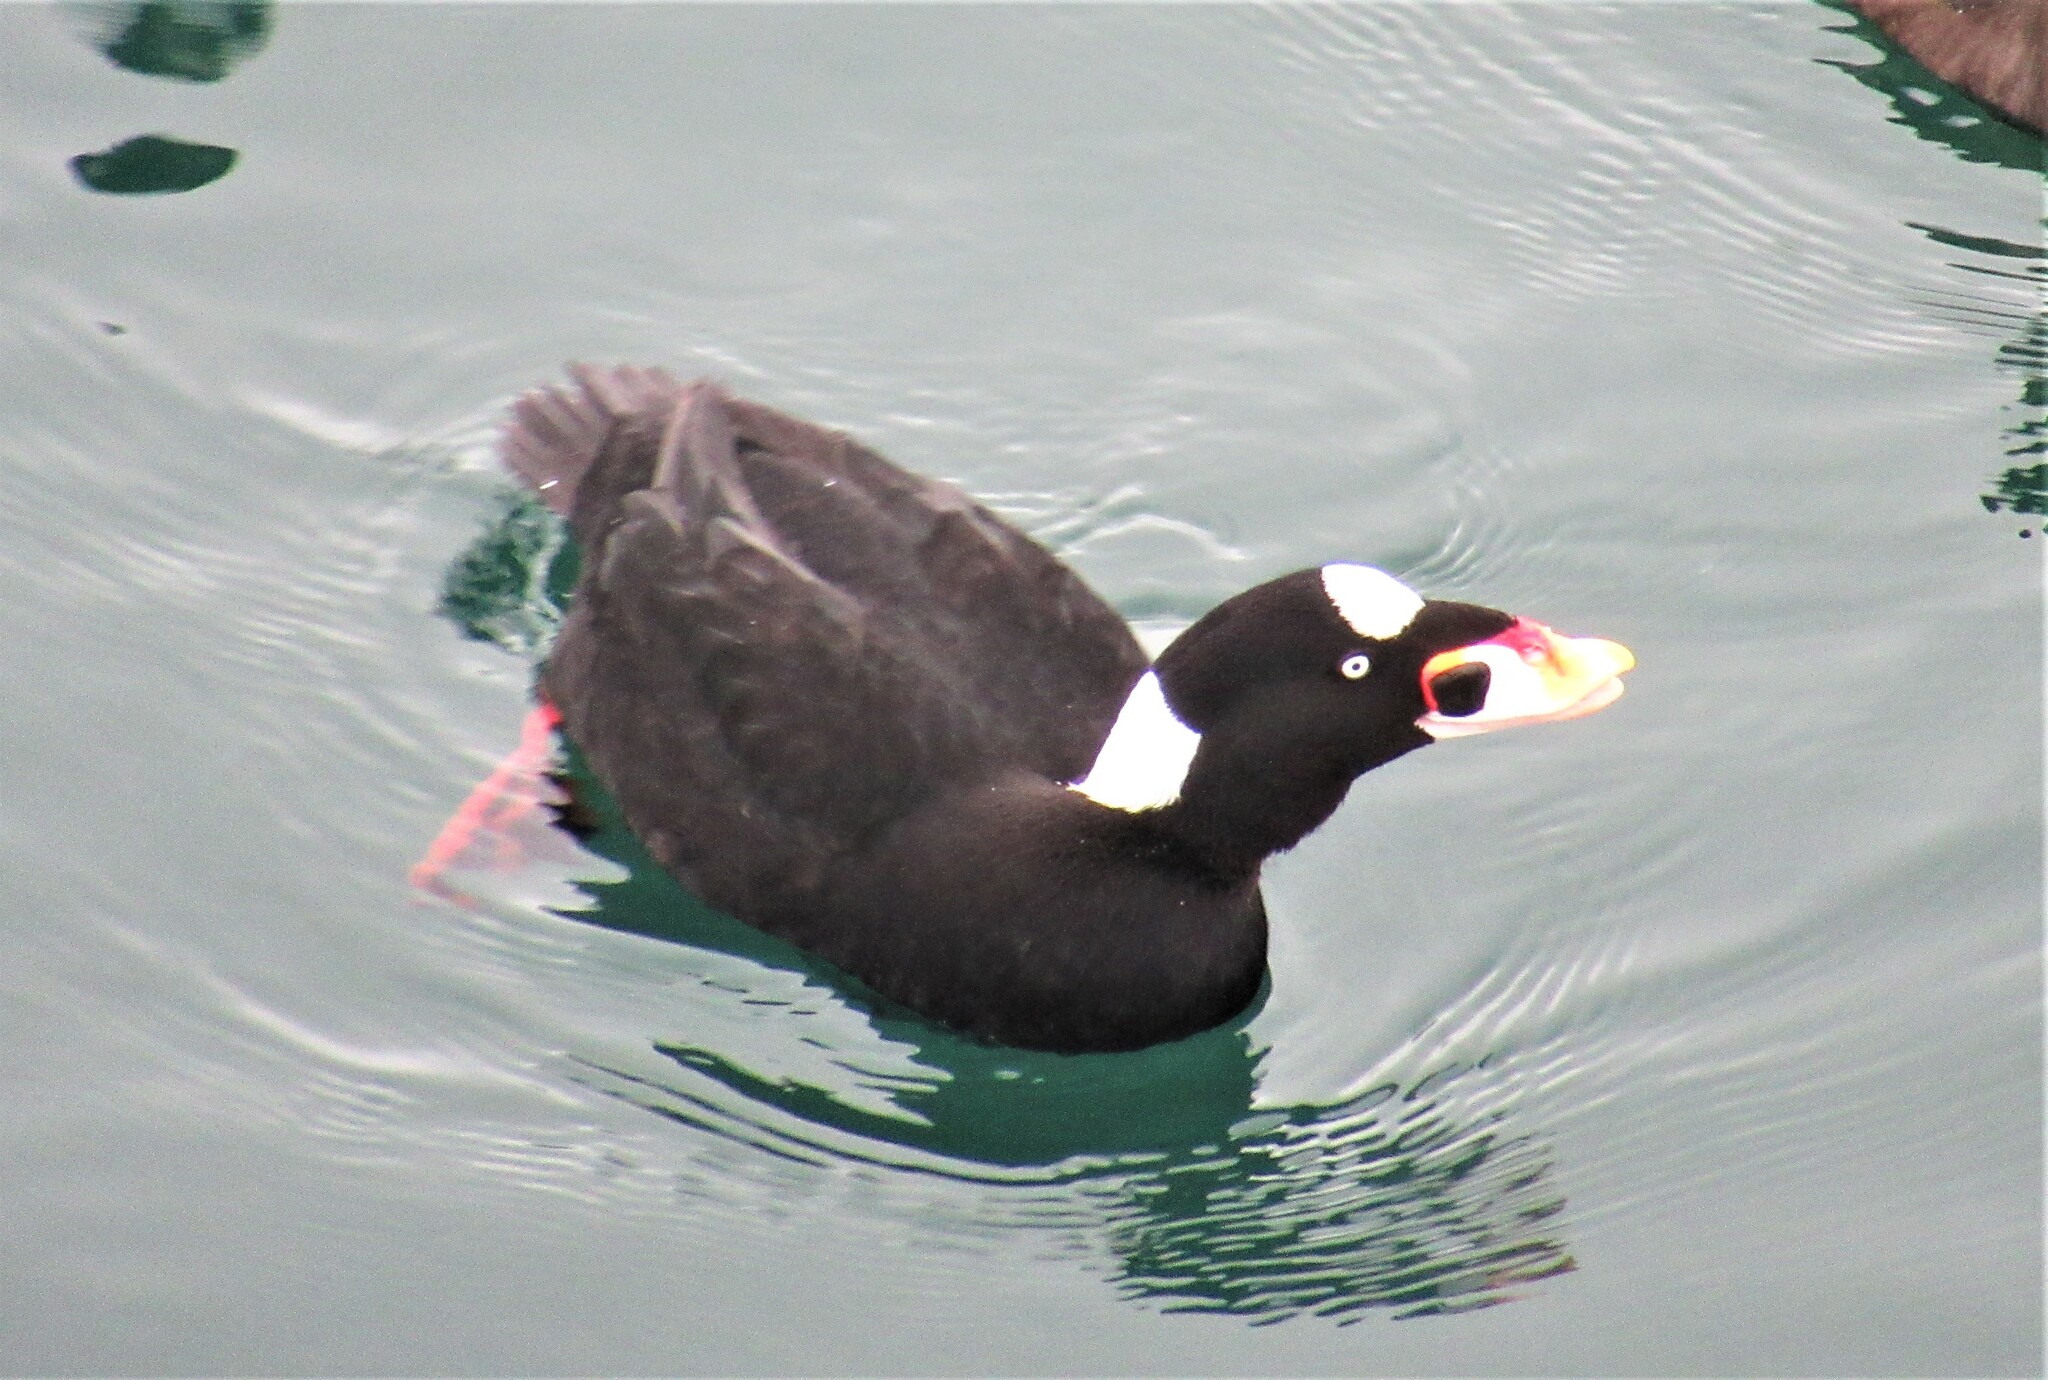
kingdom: Animalia
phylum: Chordata
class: Aves
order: Anseriformes
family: Anatidae
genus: Melanitta
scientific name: Melanitta perspicillata
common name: Surf scoter
